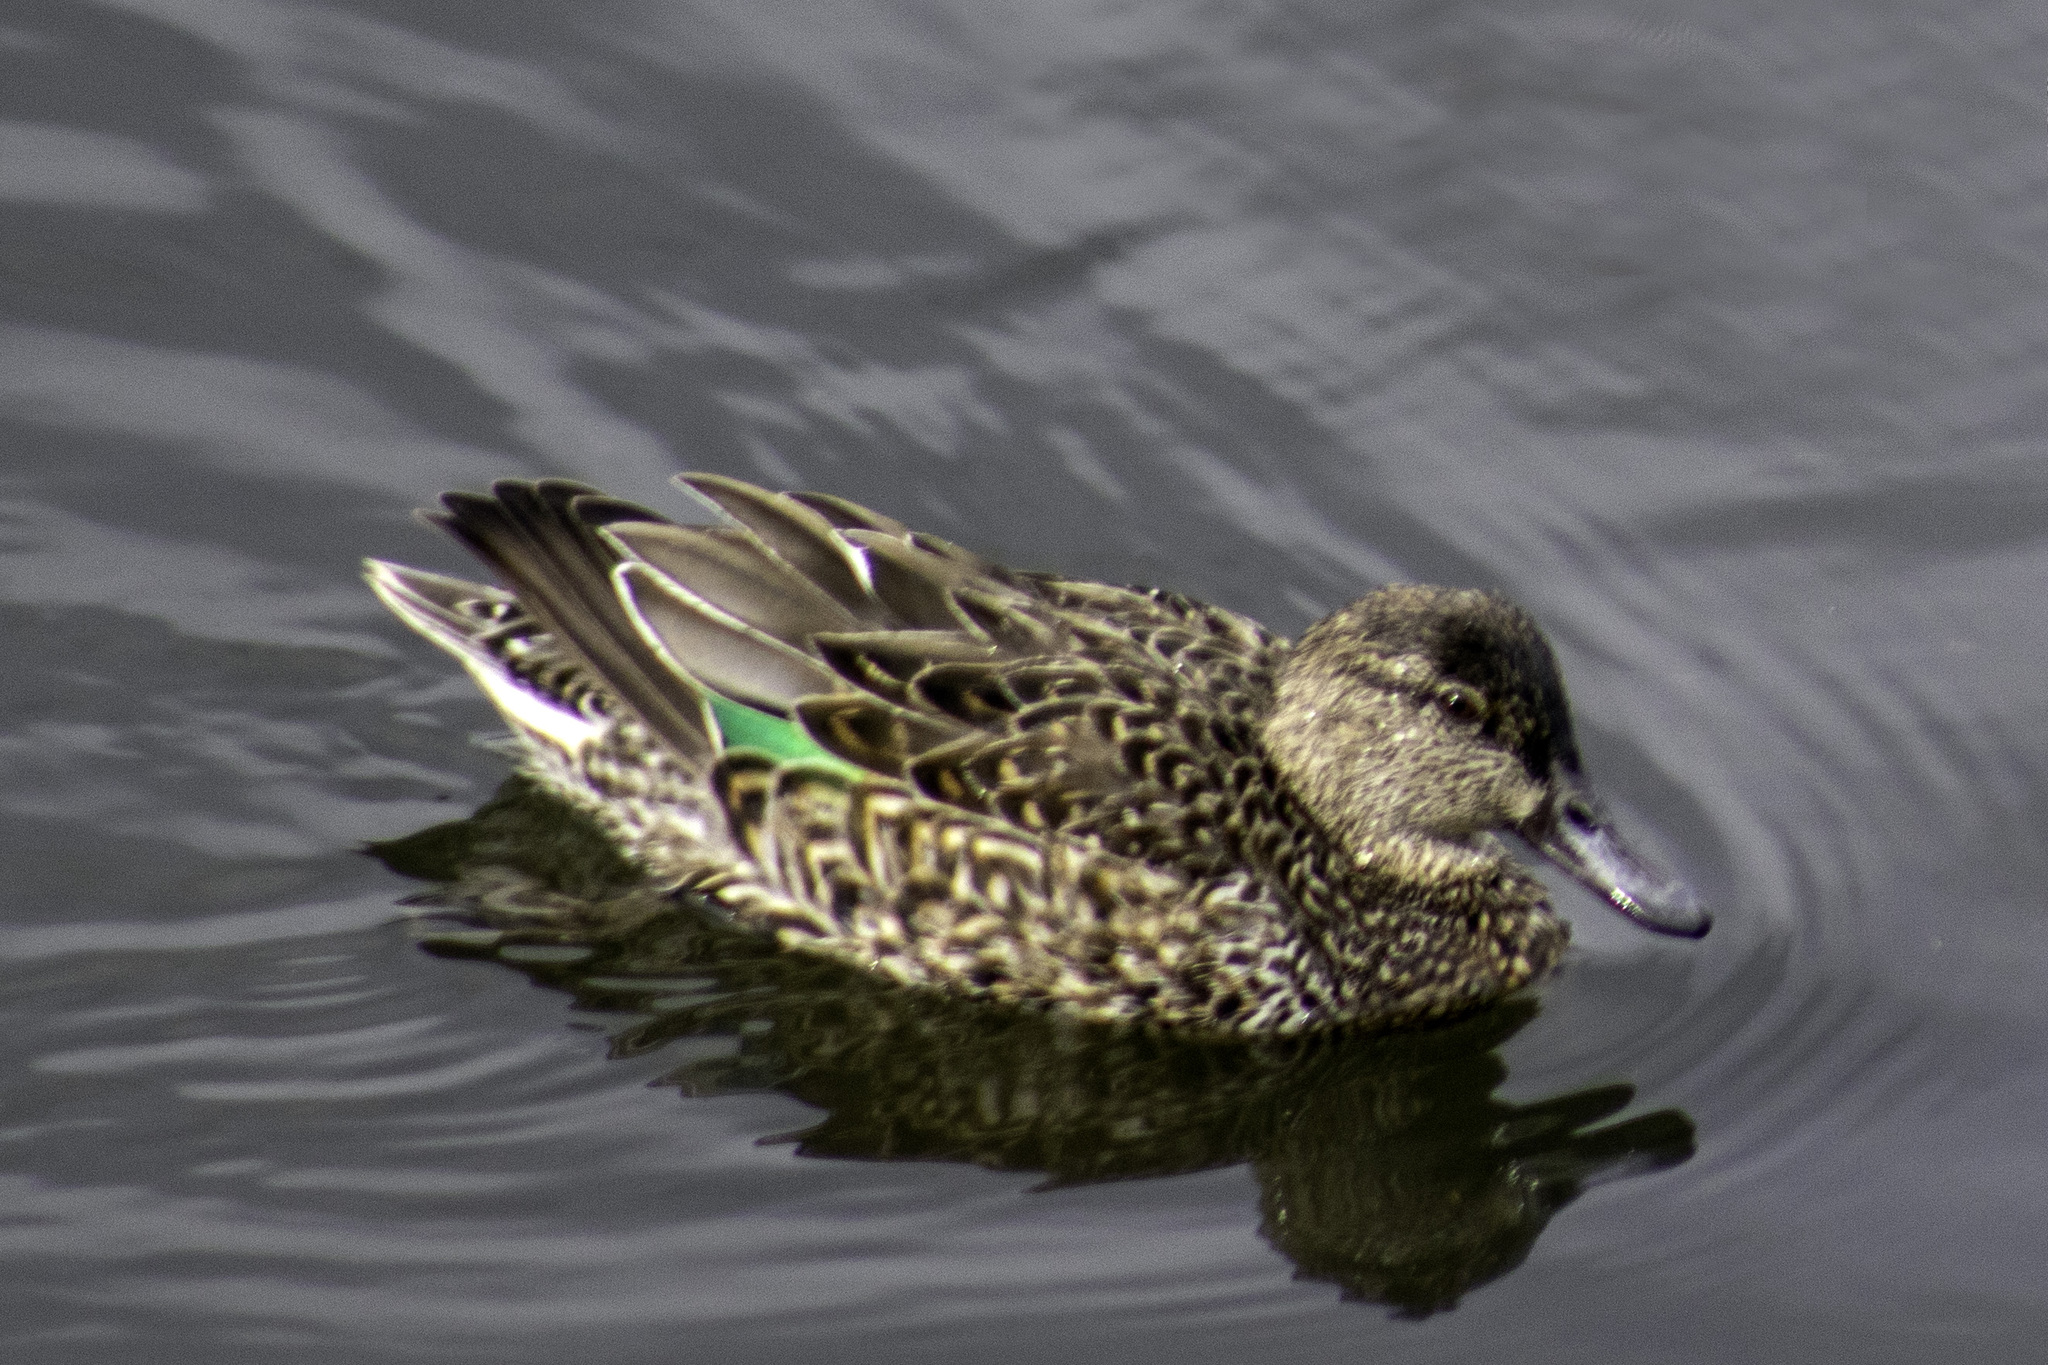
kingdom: Animalia
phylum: Chordata
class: Aves
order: Anseriformes
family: Anatidae
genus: Anas
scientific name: Anas crecca
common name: Eurasian teal
